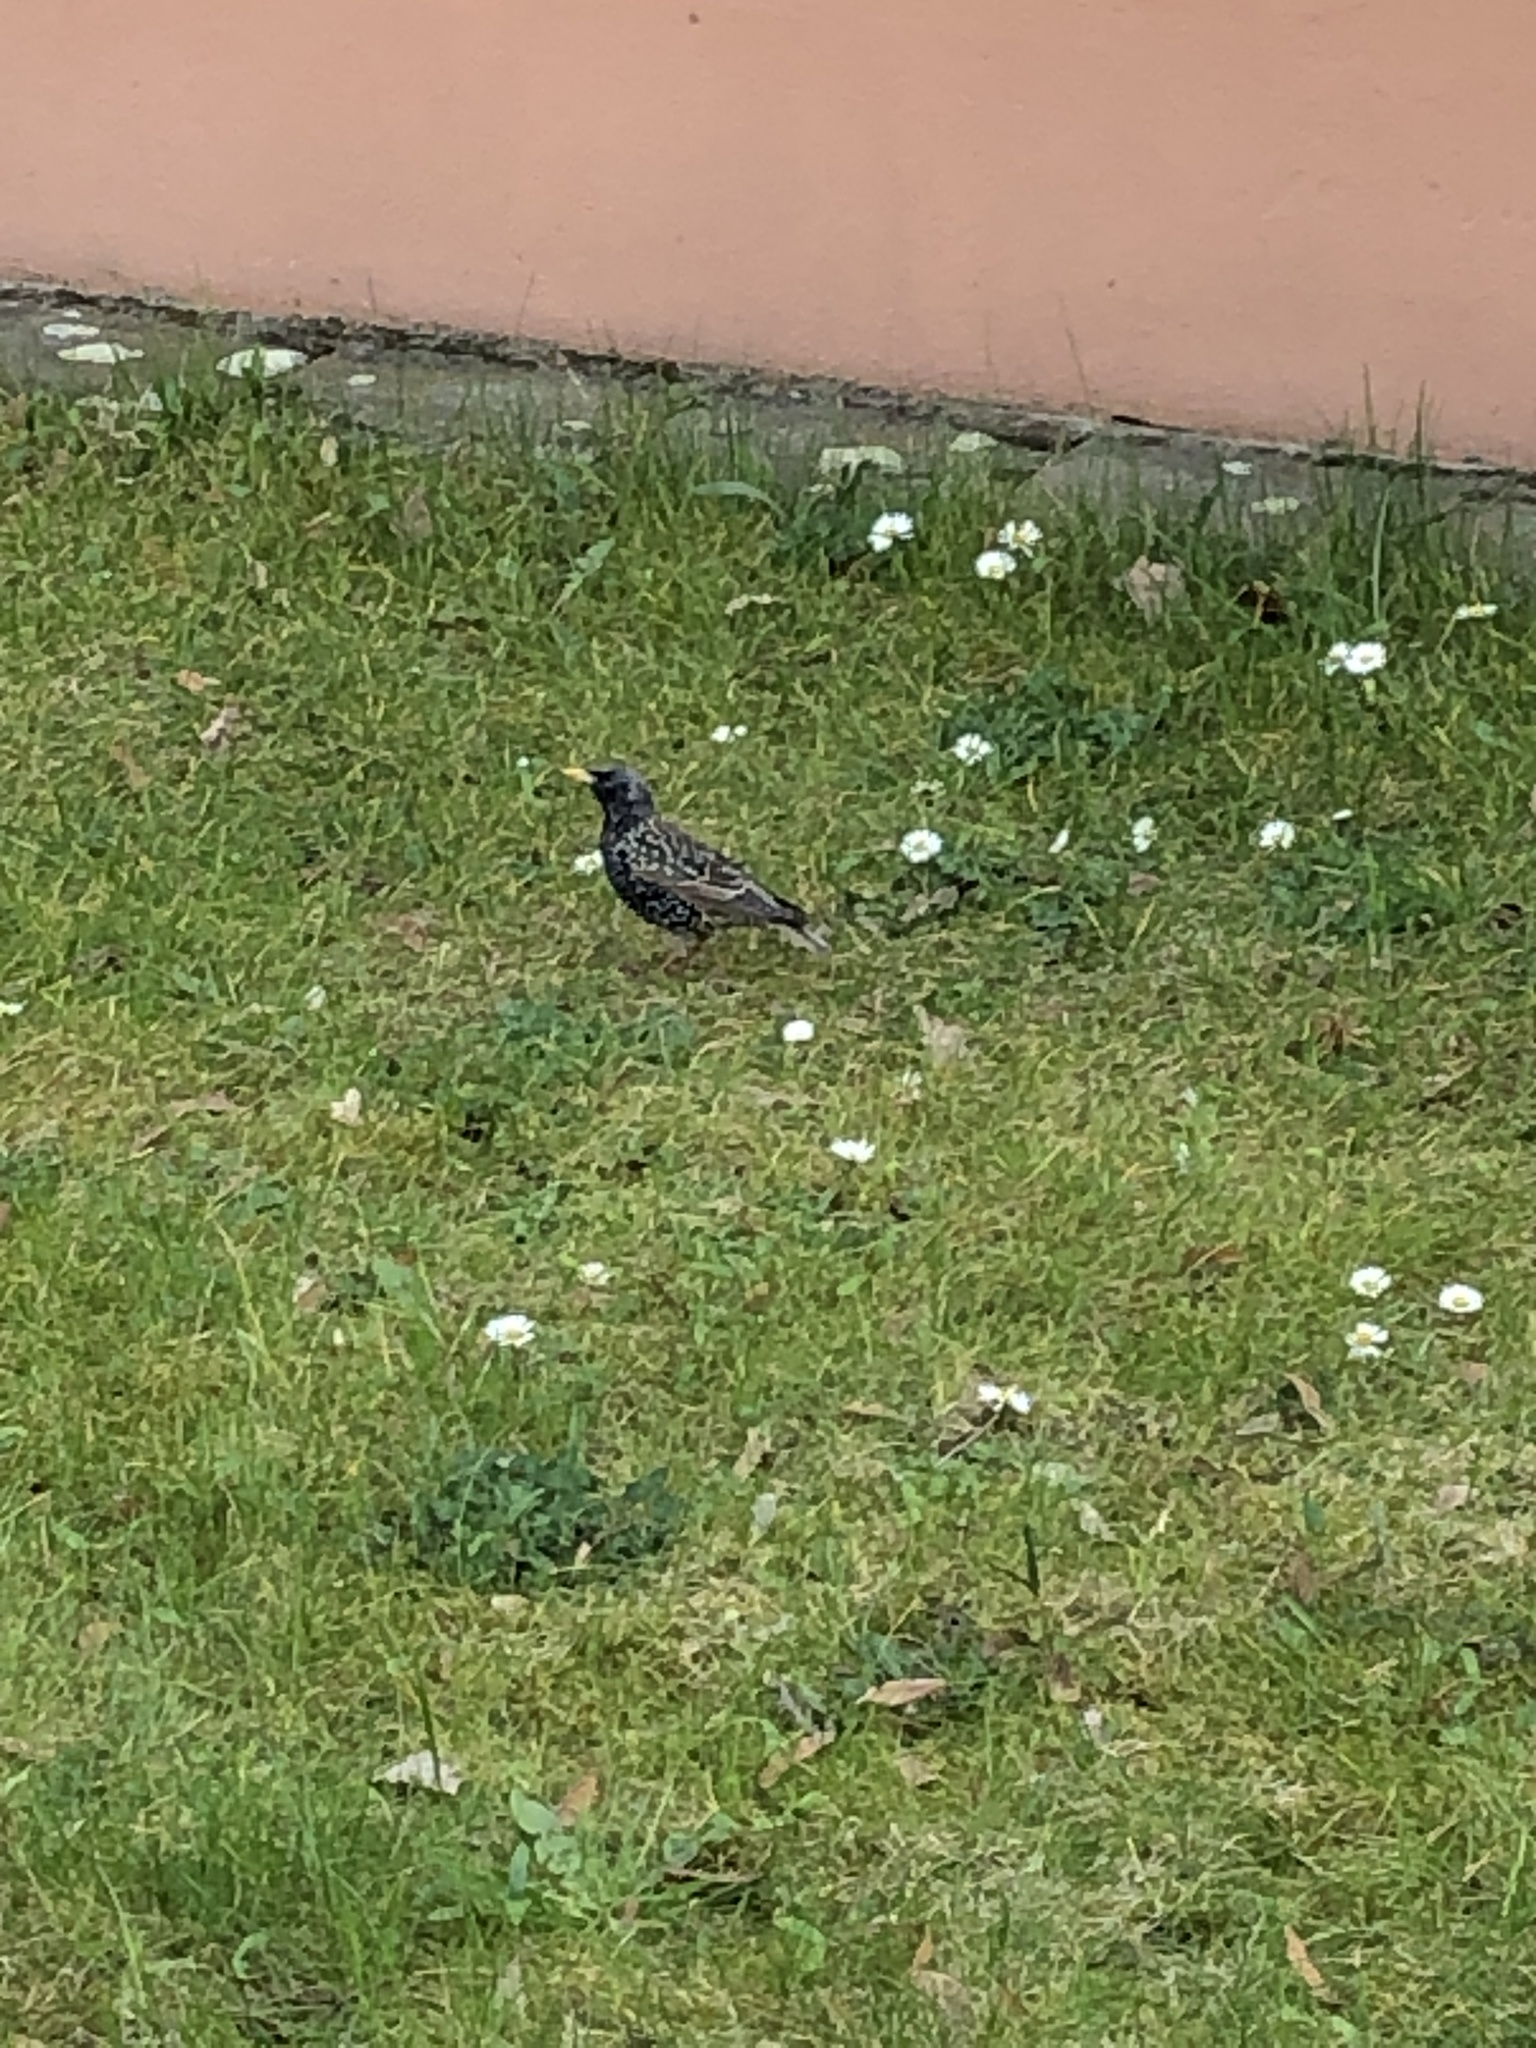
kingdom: Animalia
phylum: Chordata
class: Aves
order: Passeriformes
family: Sturnidae
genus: Sturnus
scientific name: Sturnus vulgaris
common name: Common starling
